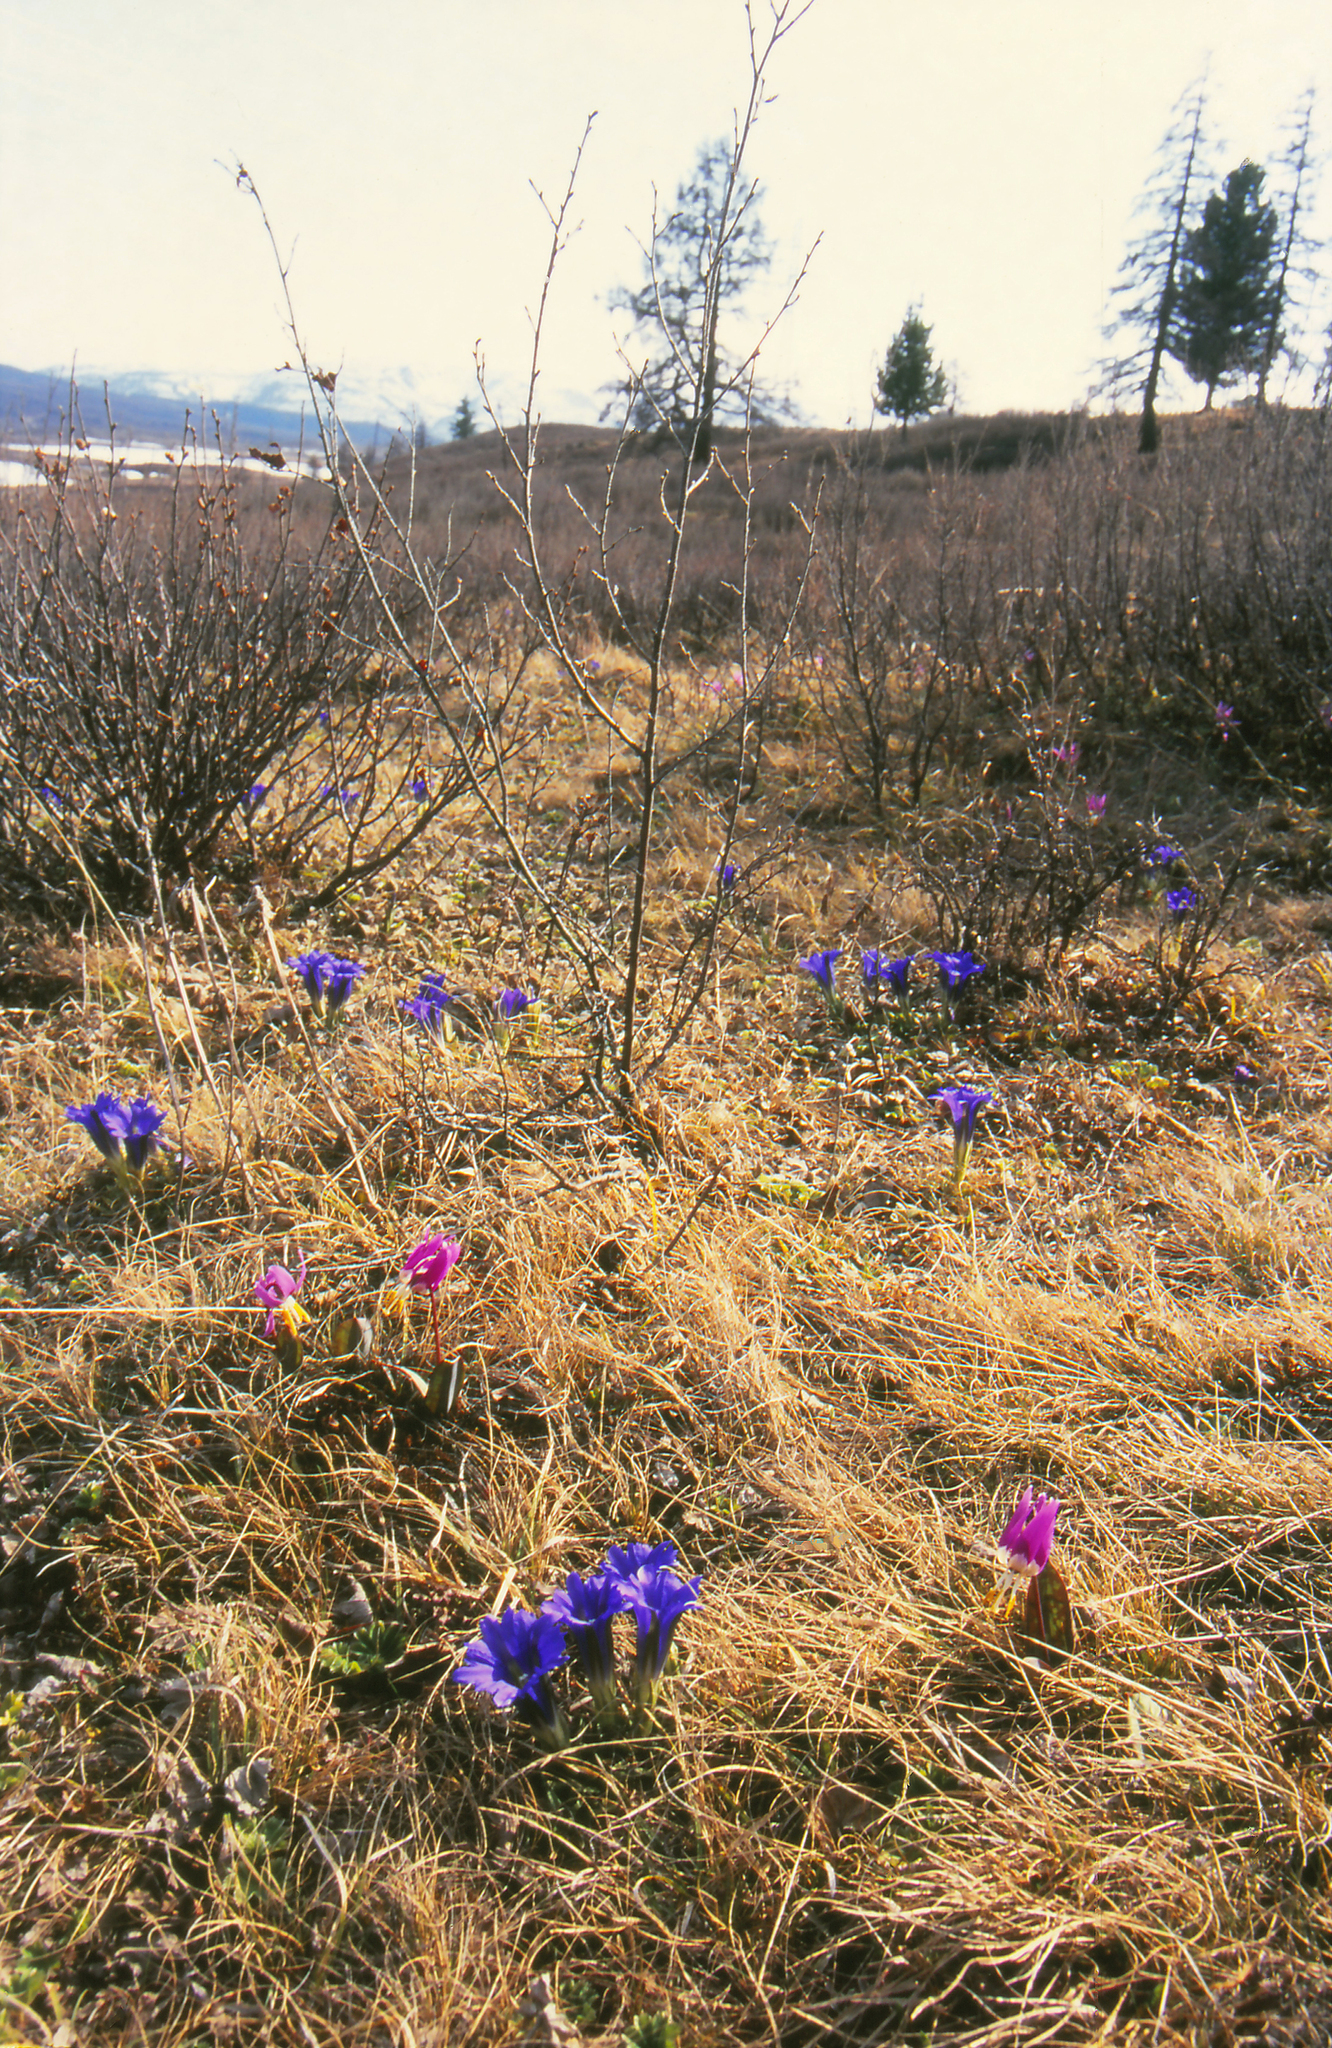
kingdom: Plantae
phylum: Tracheophyta
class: Magnoliopsida
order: Fagales
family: Betulaceae
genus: Betula
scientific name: Betula glandulosa
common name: Dwarf birch
